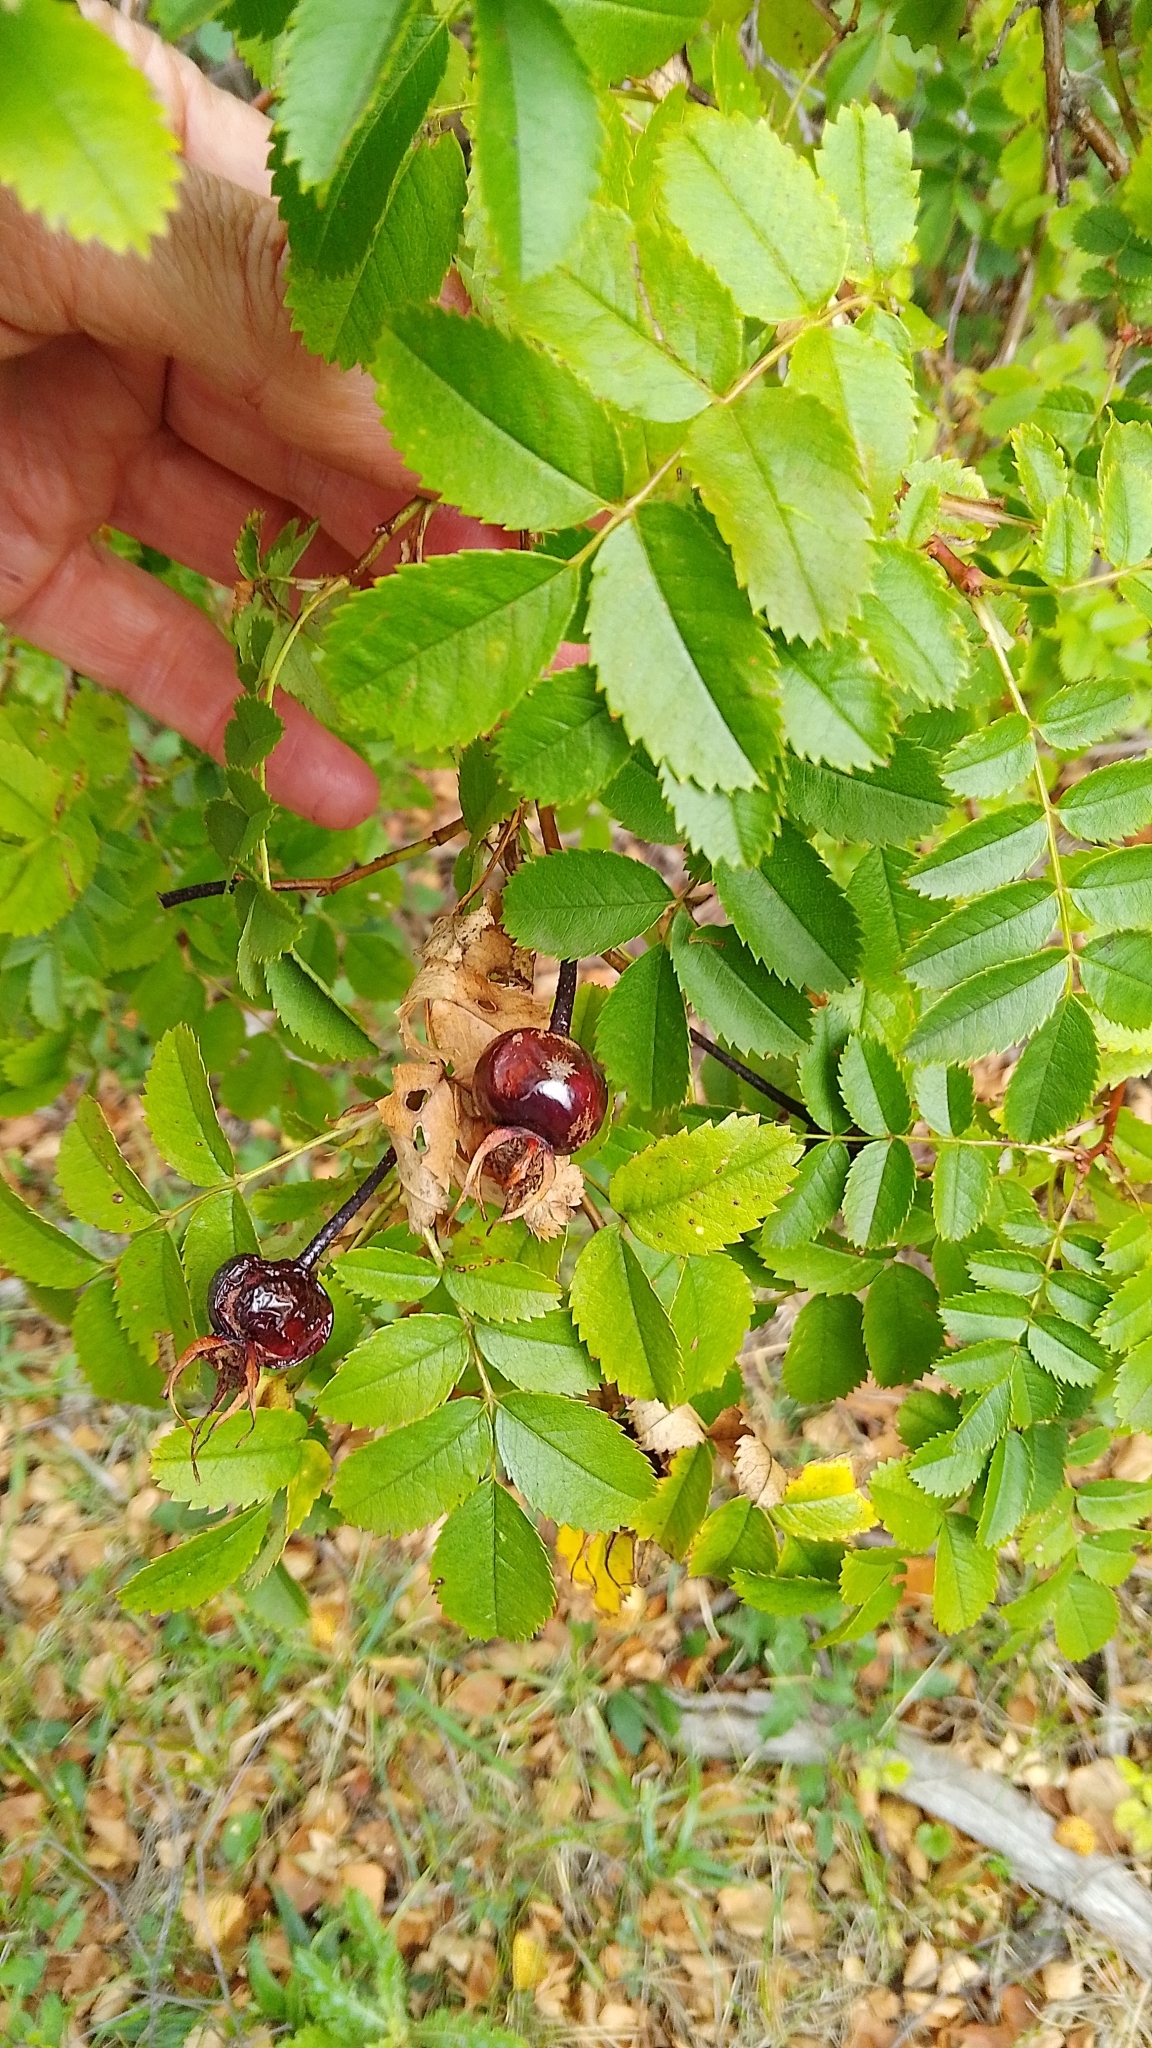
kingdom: Plantae
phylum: Tracheophyta
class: Magnoliopsida
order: Rosales
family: Rosaceae
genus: Rosa
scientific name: Rosa spinosissima
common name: Burnet rose
